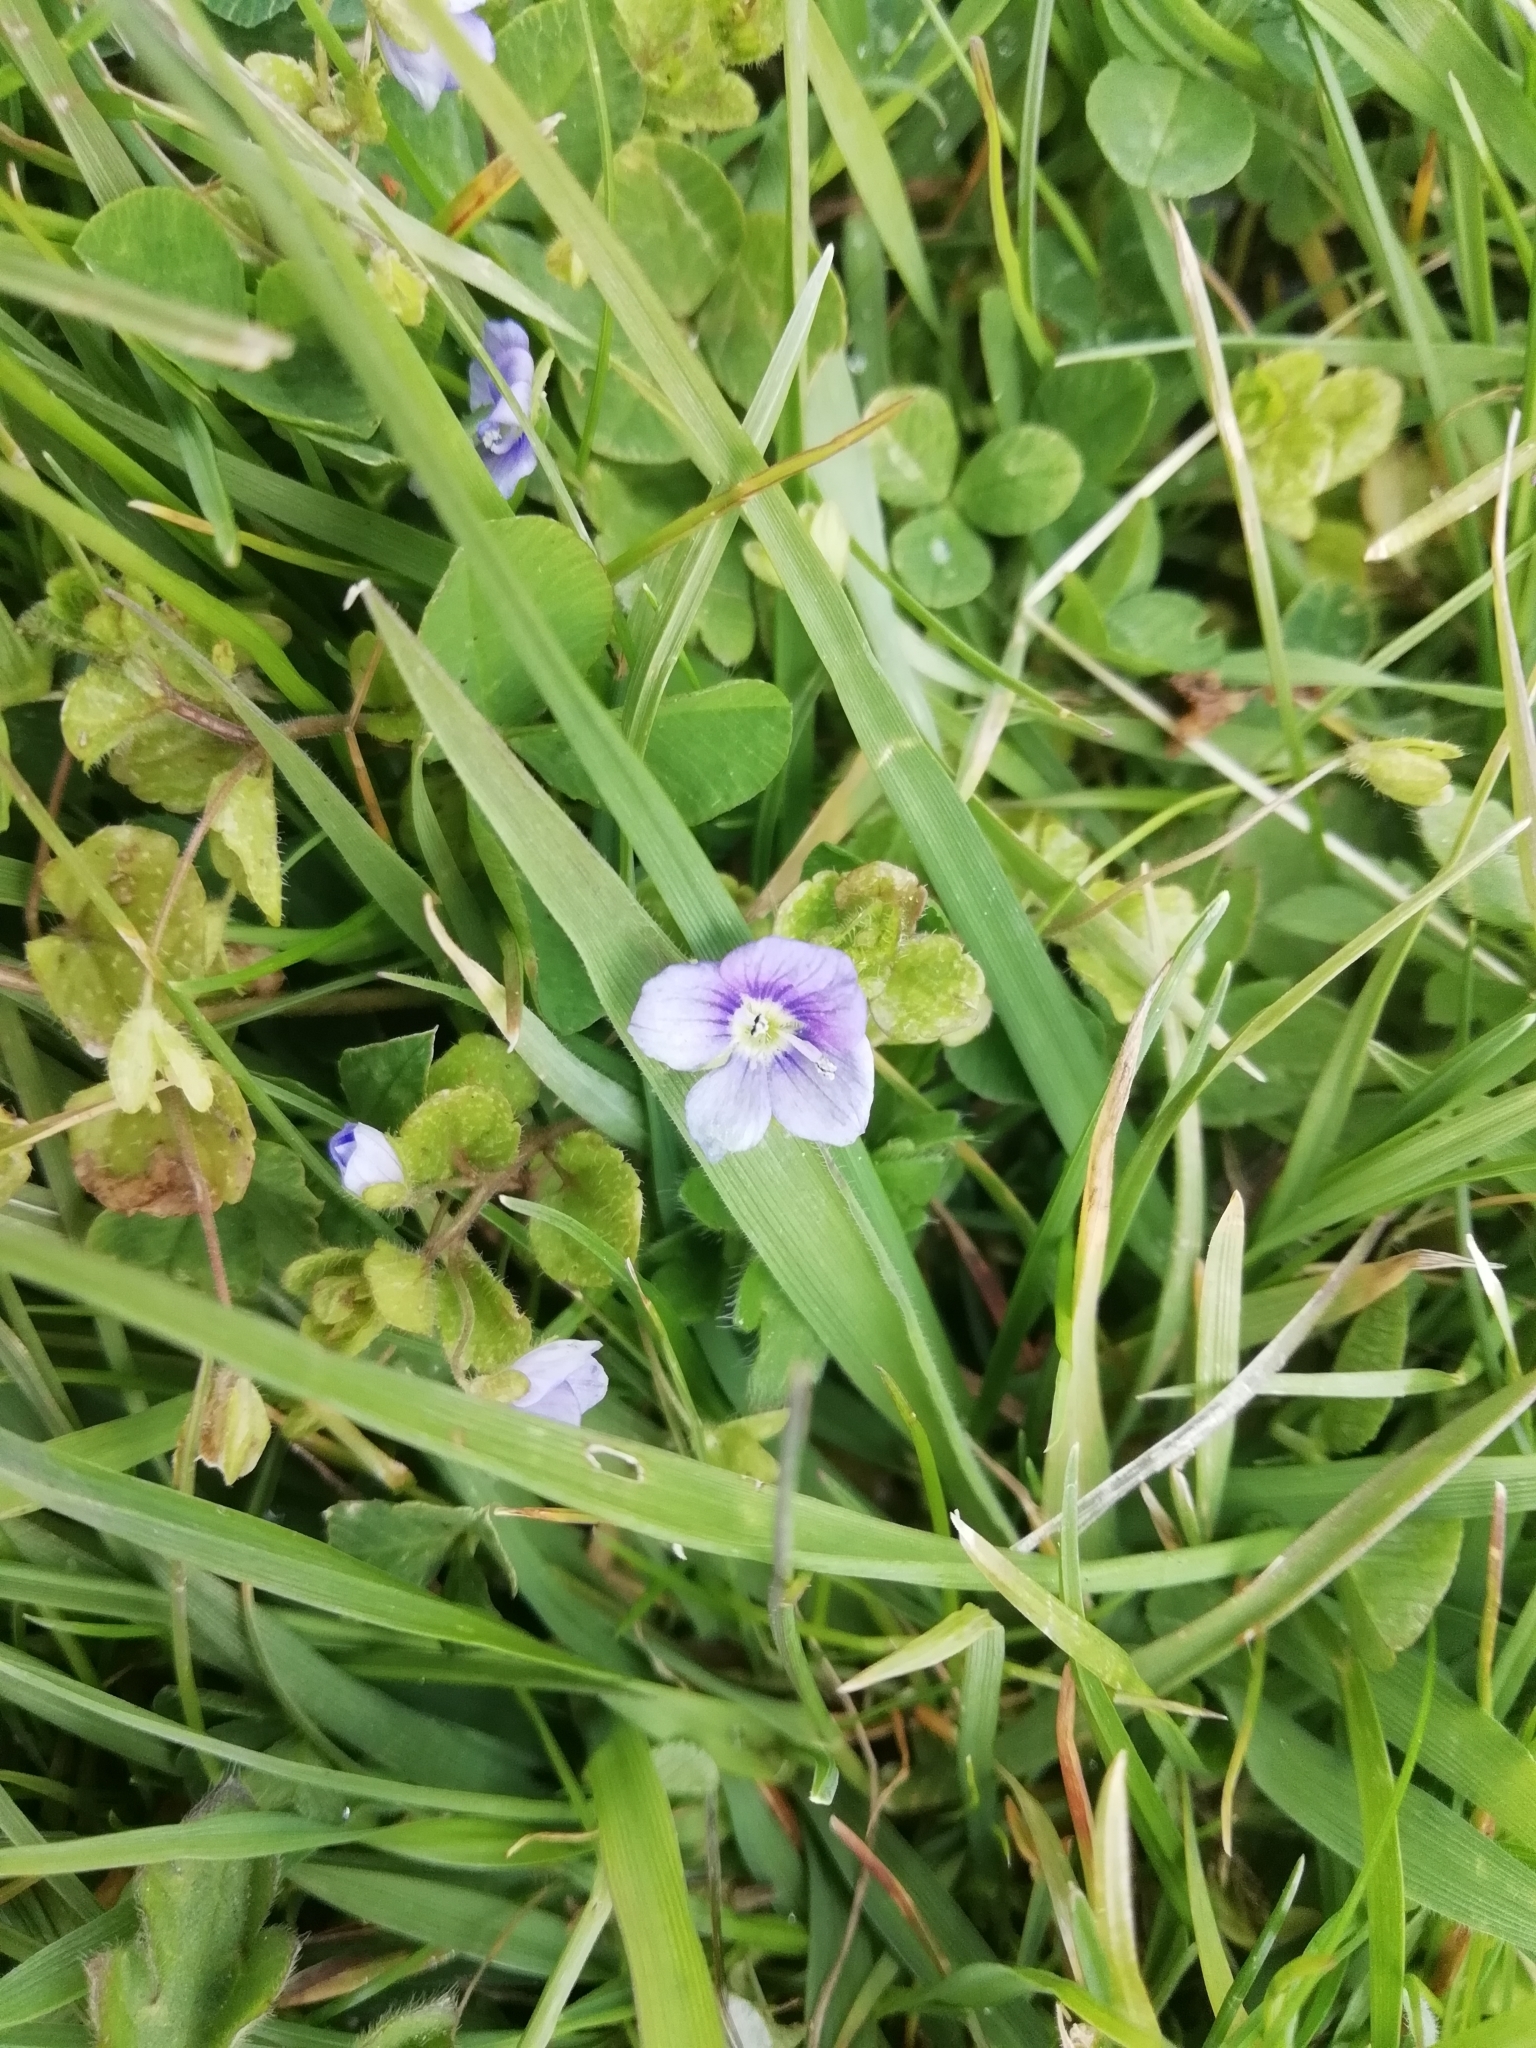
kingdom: Plantae
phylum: Tracheophyta
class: Magnoliopsida
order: Lamiales
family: Plantaginaceae
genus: Veronica
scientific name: Veronica filiformis
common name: Slender speedwell
